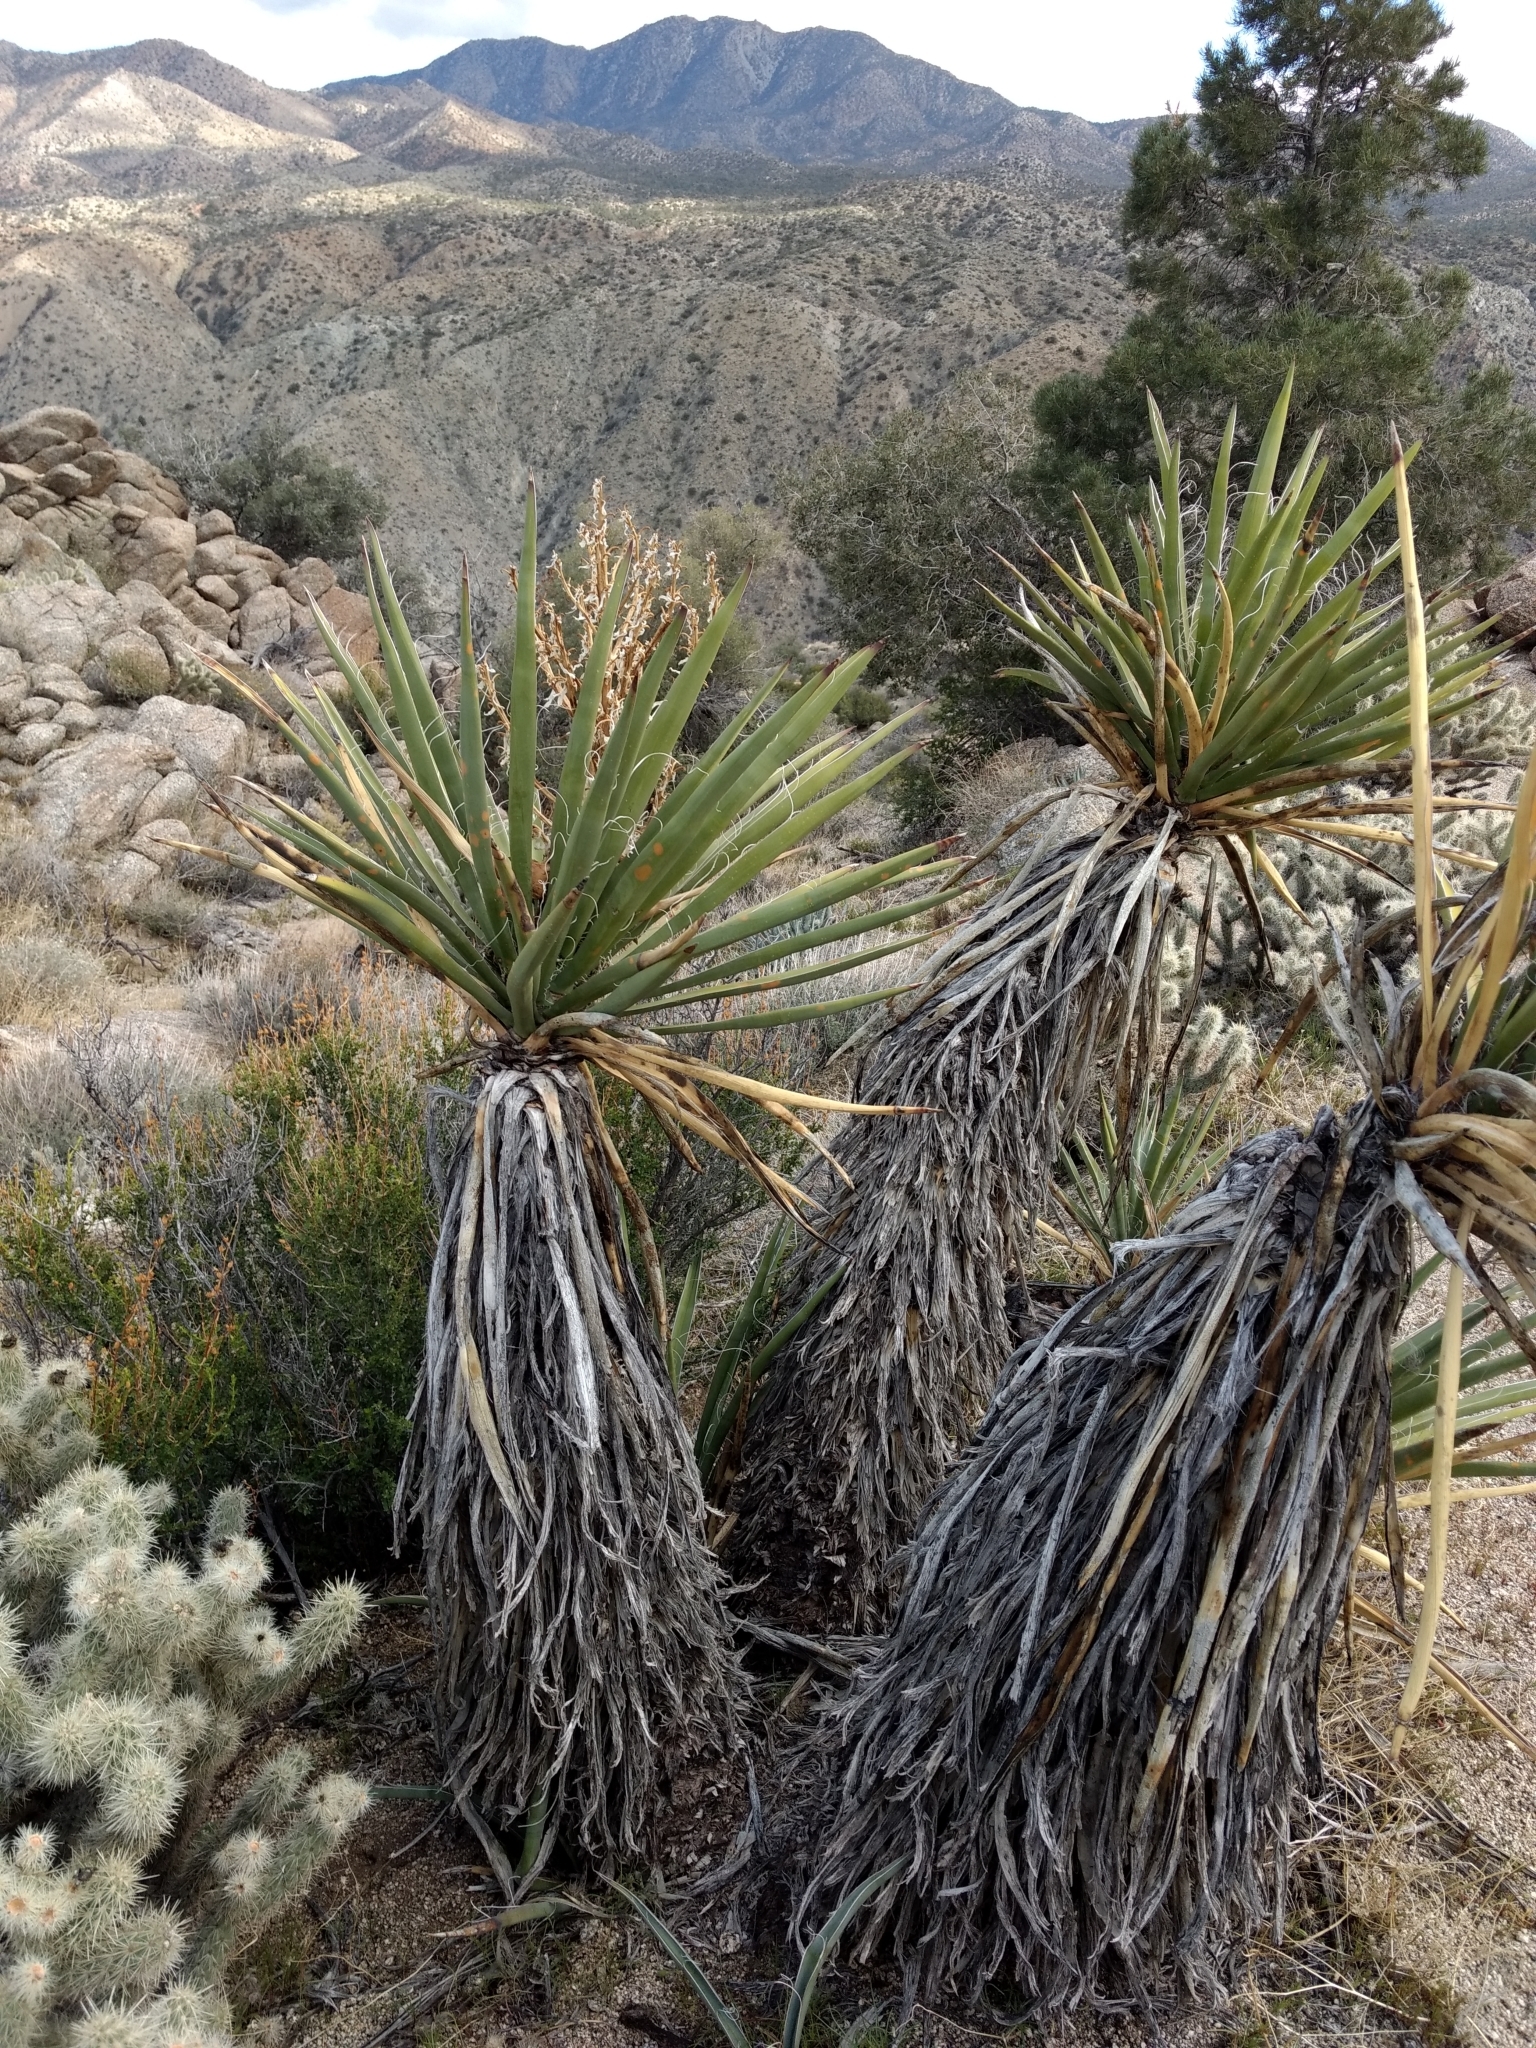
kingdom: Plantae
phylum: Tracheophyta
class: Liliopsida
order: Asparagales
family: Asparagaceae
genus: Yucca
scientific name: Yucca schidigera
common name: Mojave yucca
